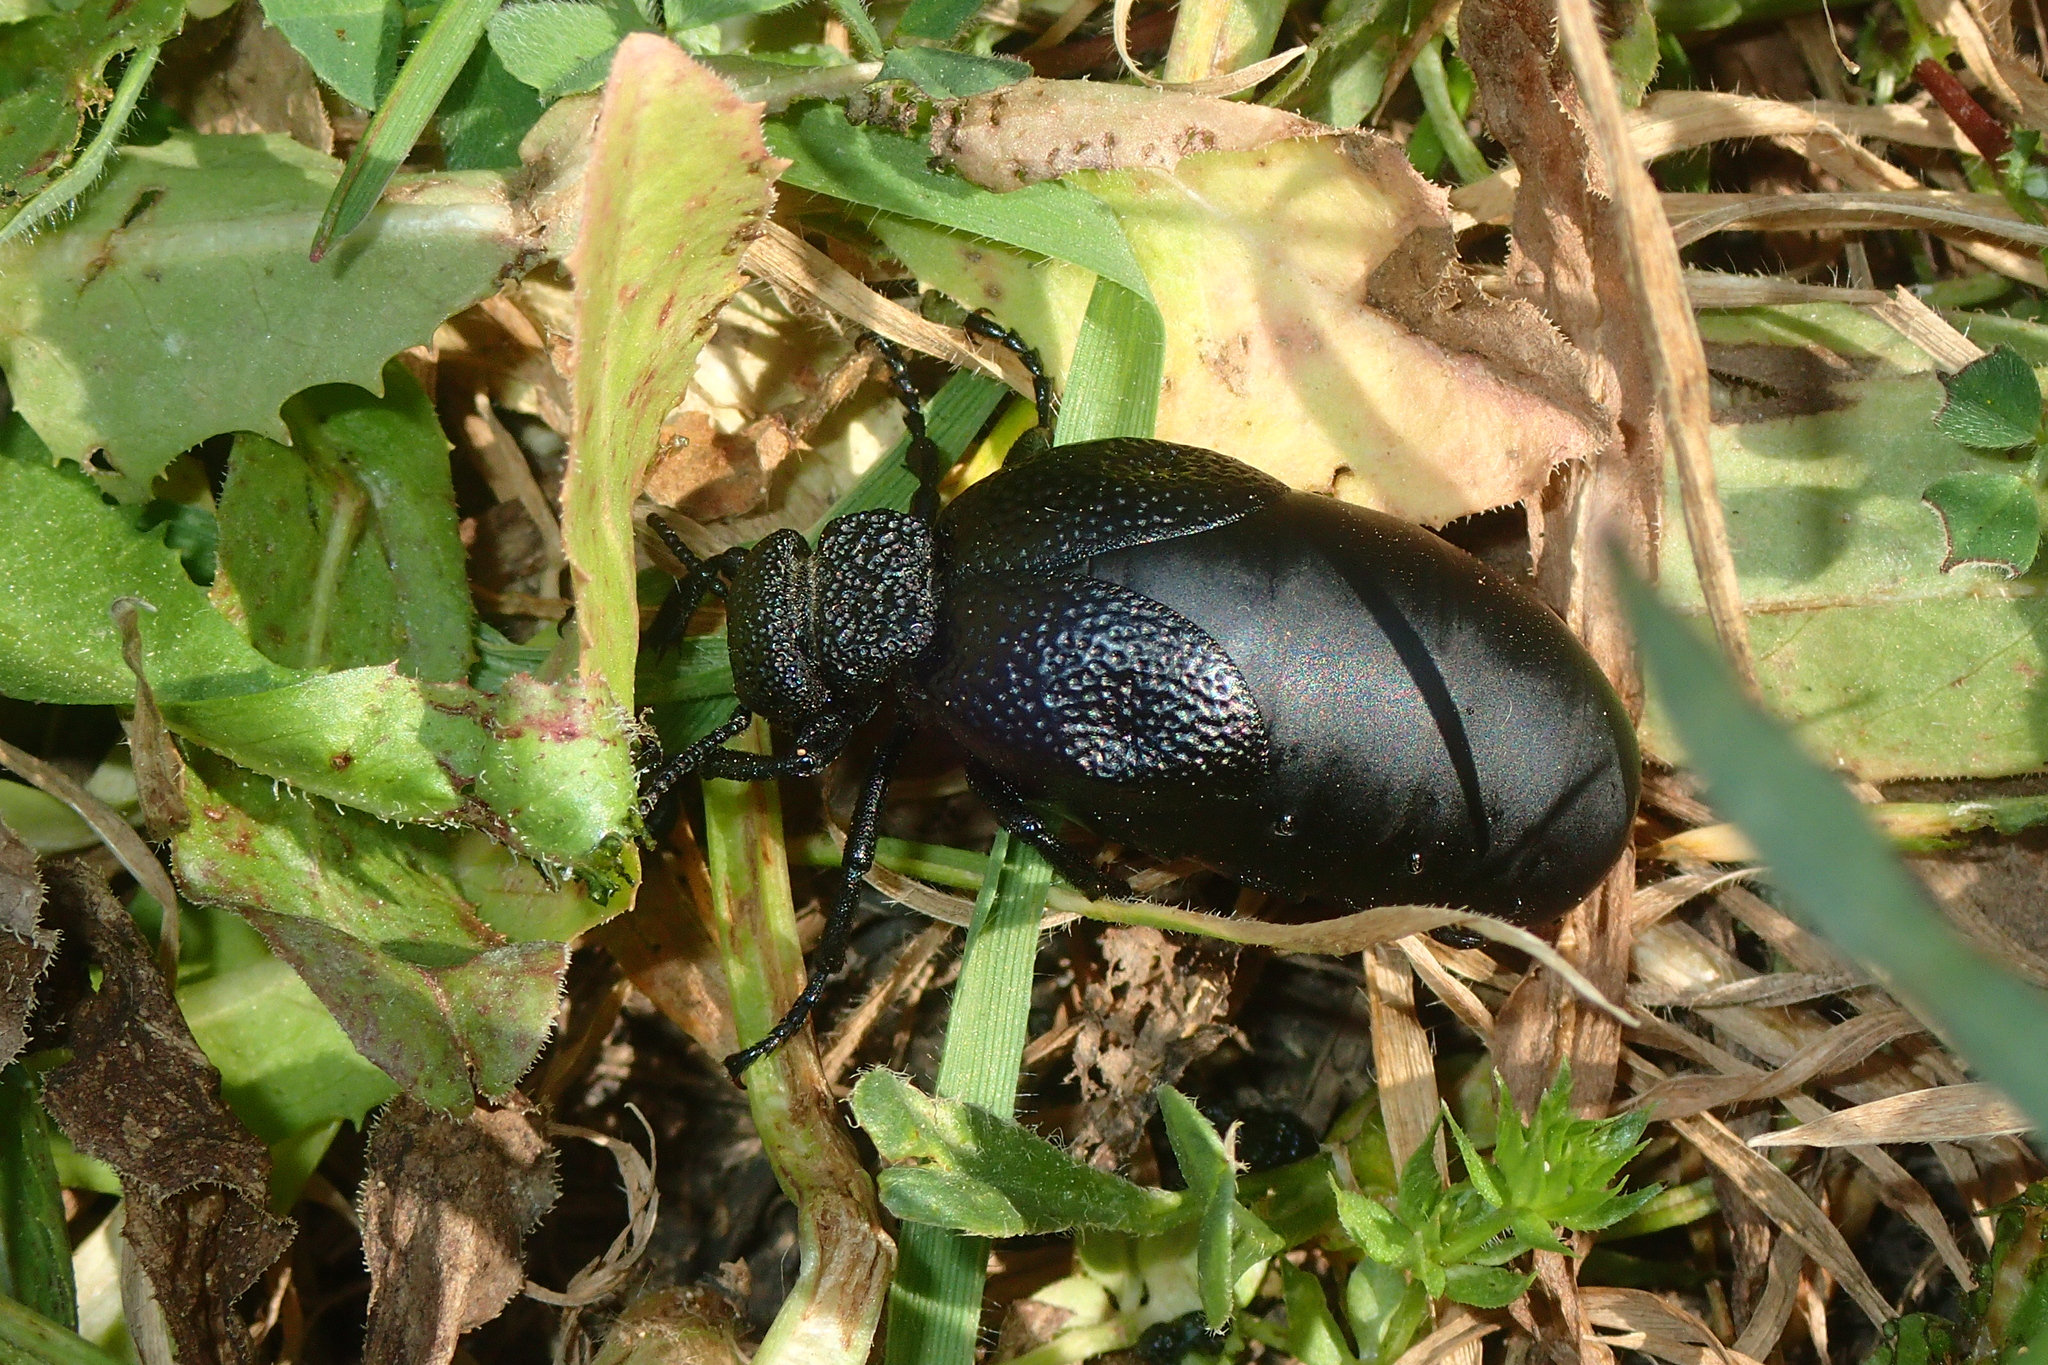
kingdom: Animalia
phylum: Arthropoda
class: Insecta
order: Coleoptera
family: Meloidae
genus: Meloe
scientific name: Meloe tuccius
